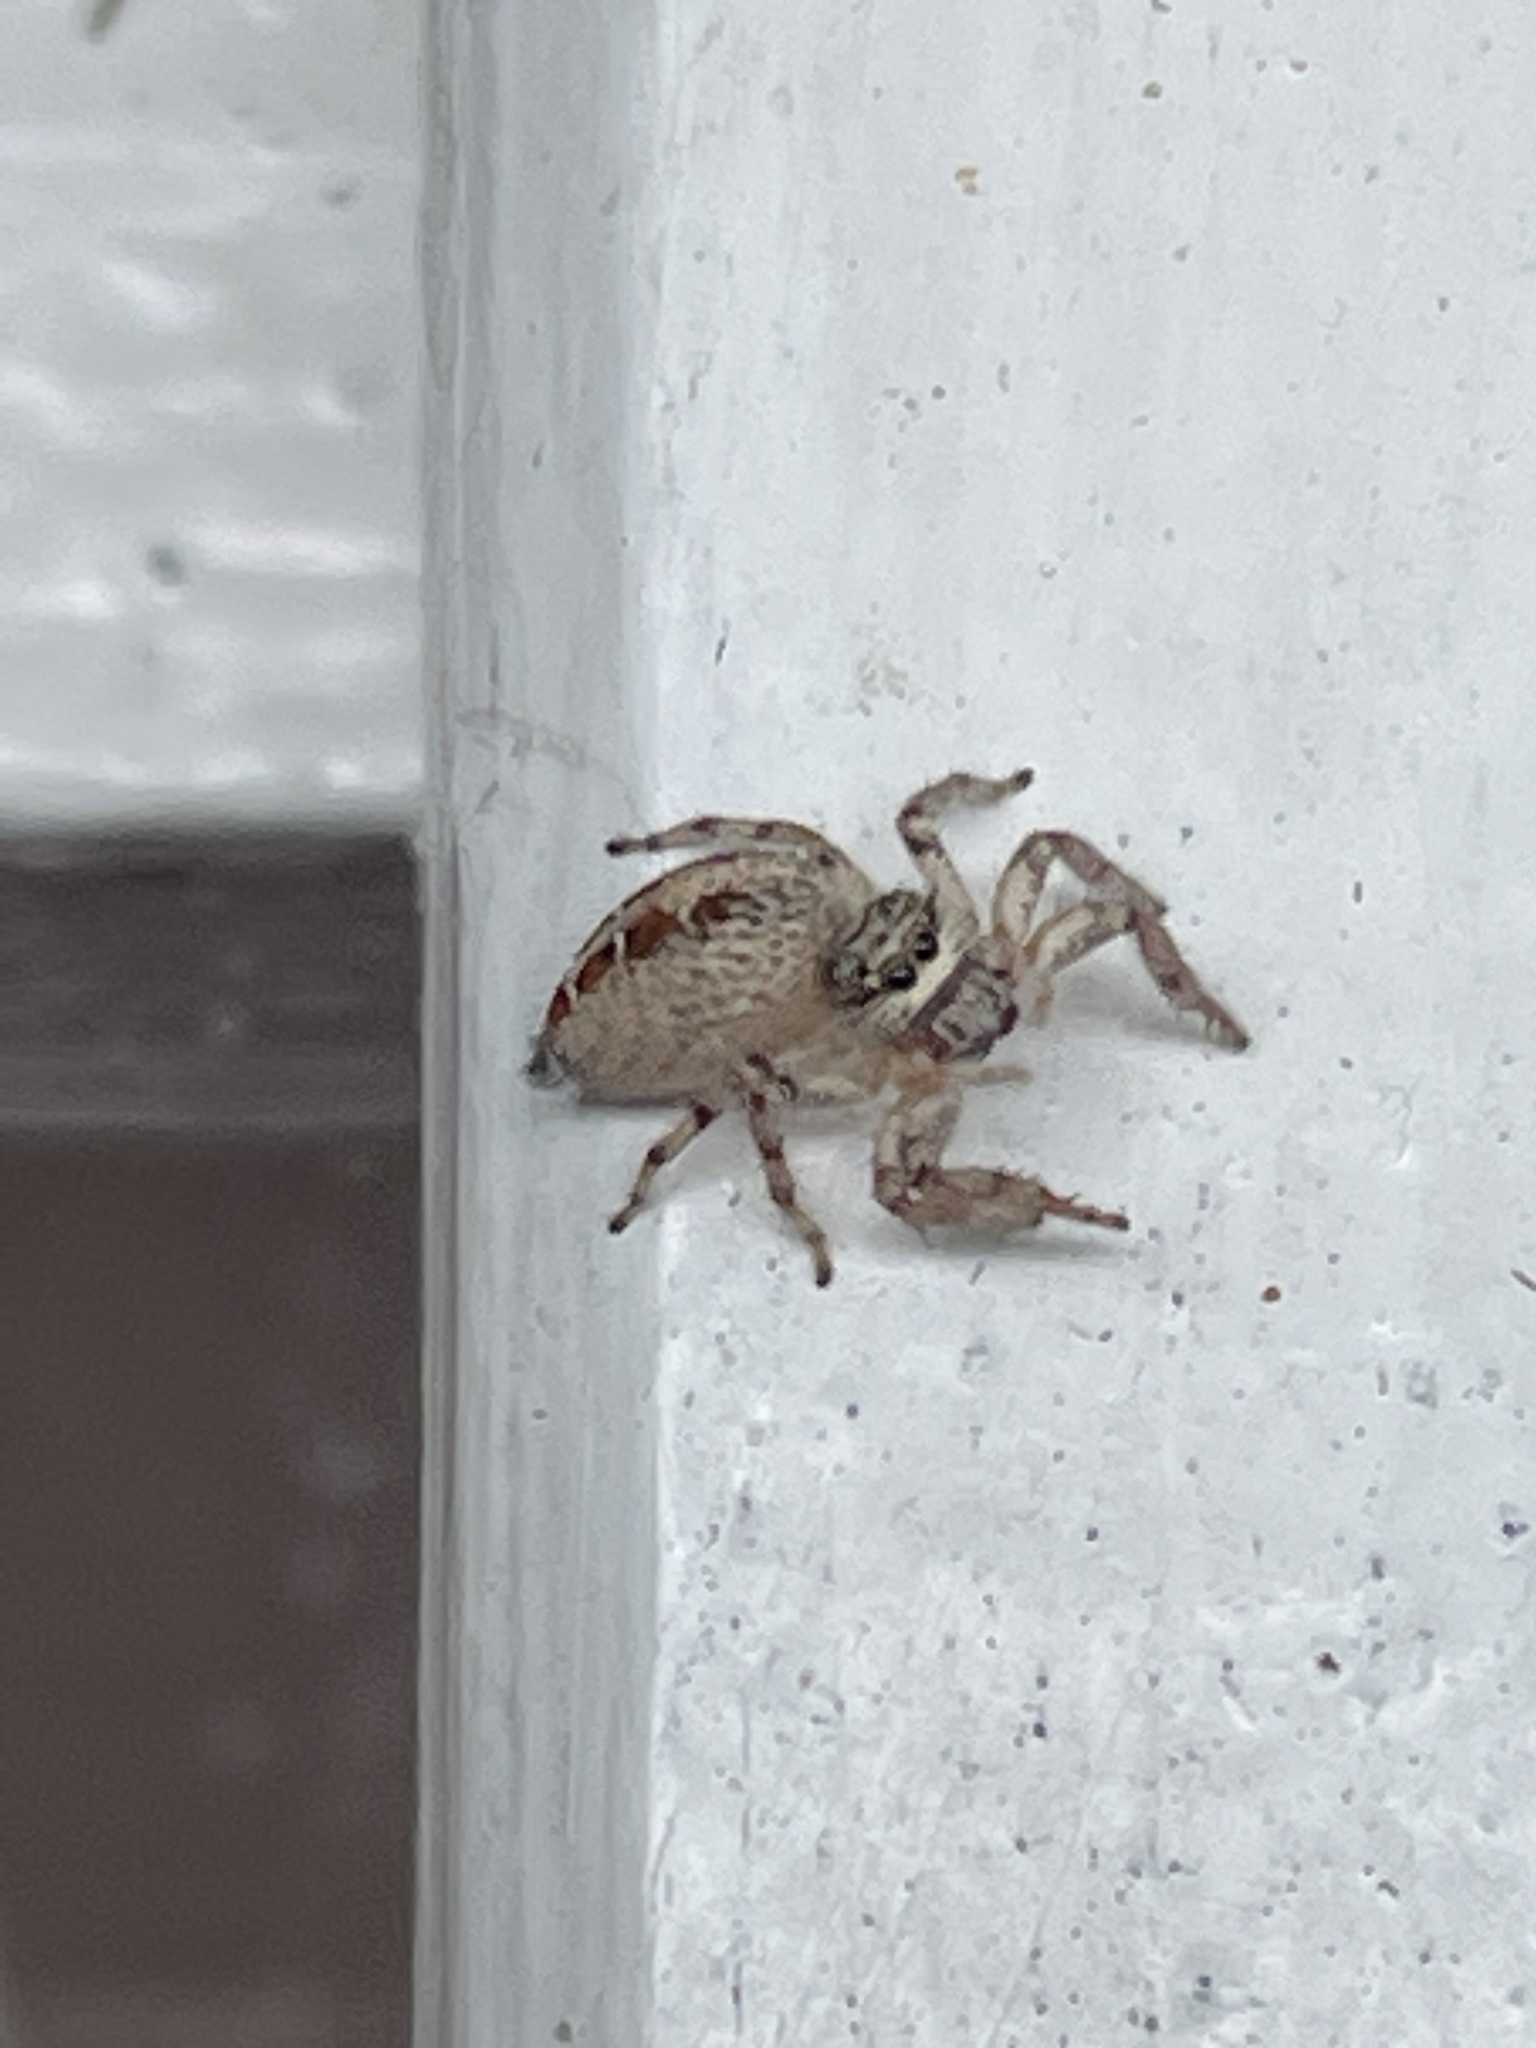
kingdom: Animalia
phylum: Arthropoda
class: Arachnida
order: Araneae
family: Salticidae
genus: Thyene
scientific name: Thyene coccineovittata
